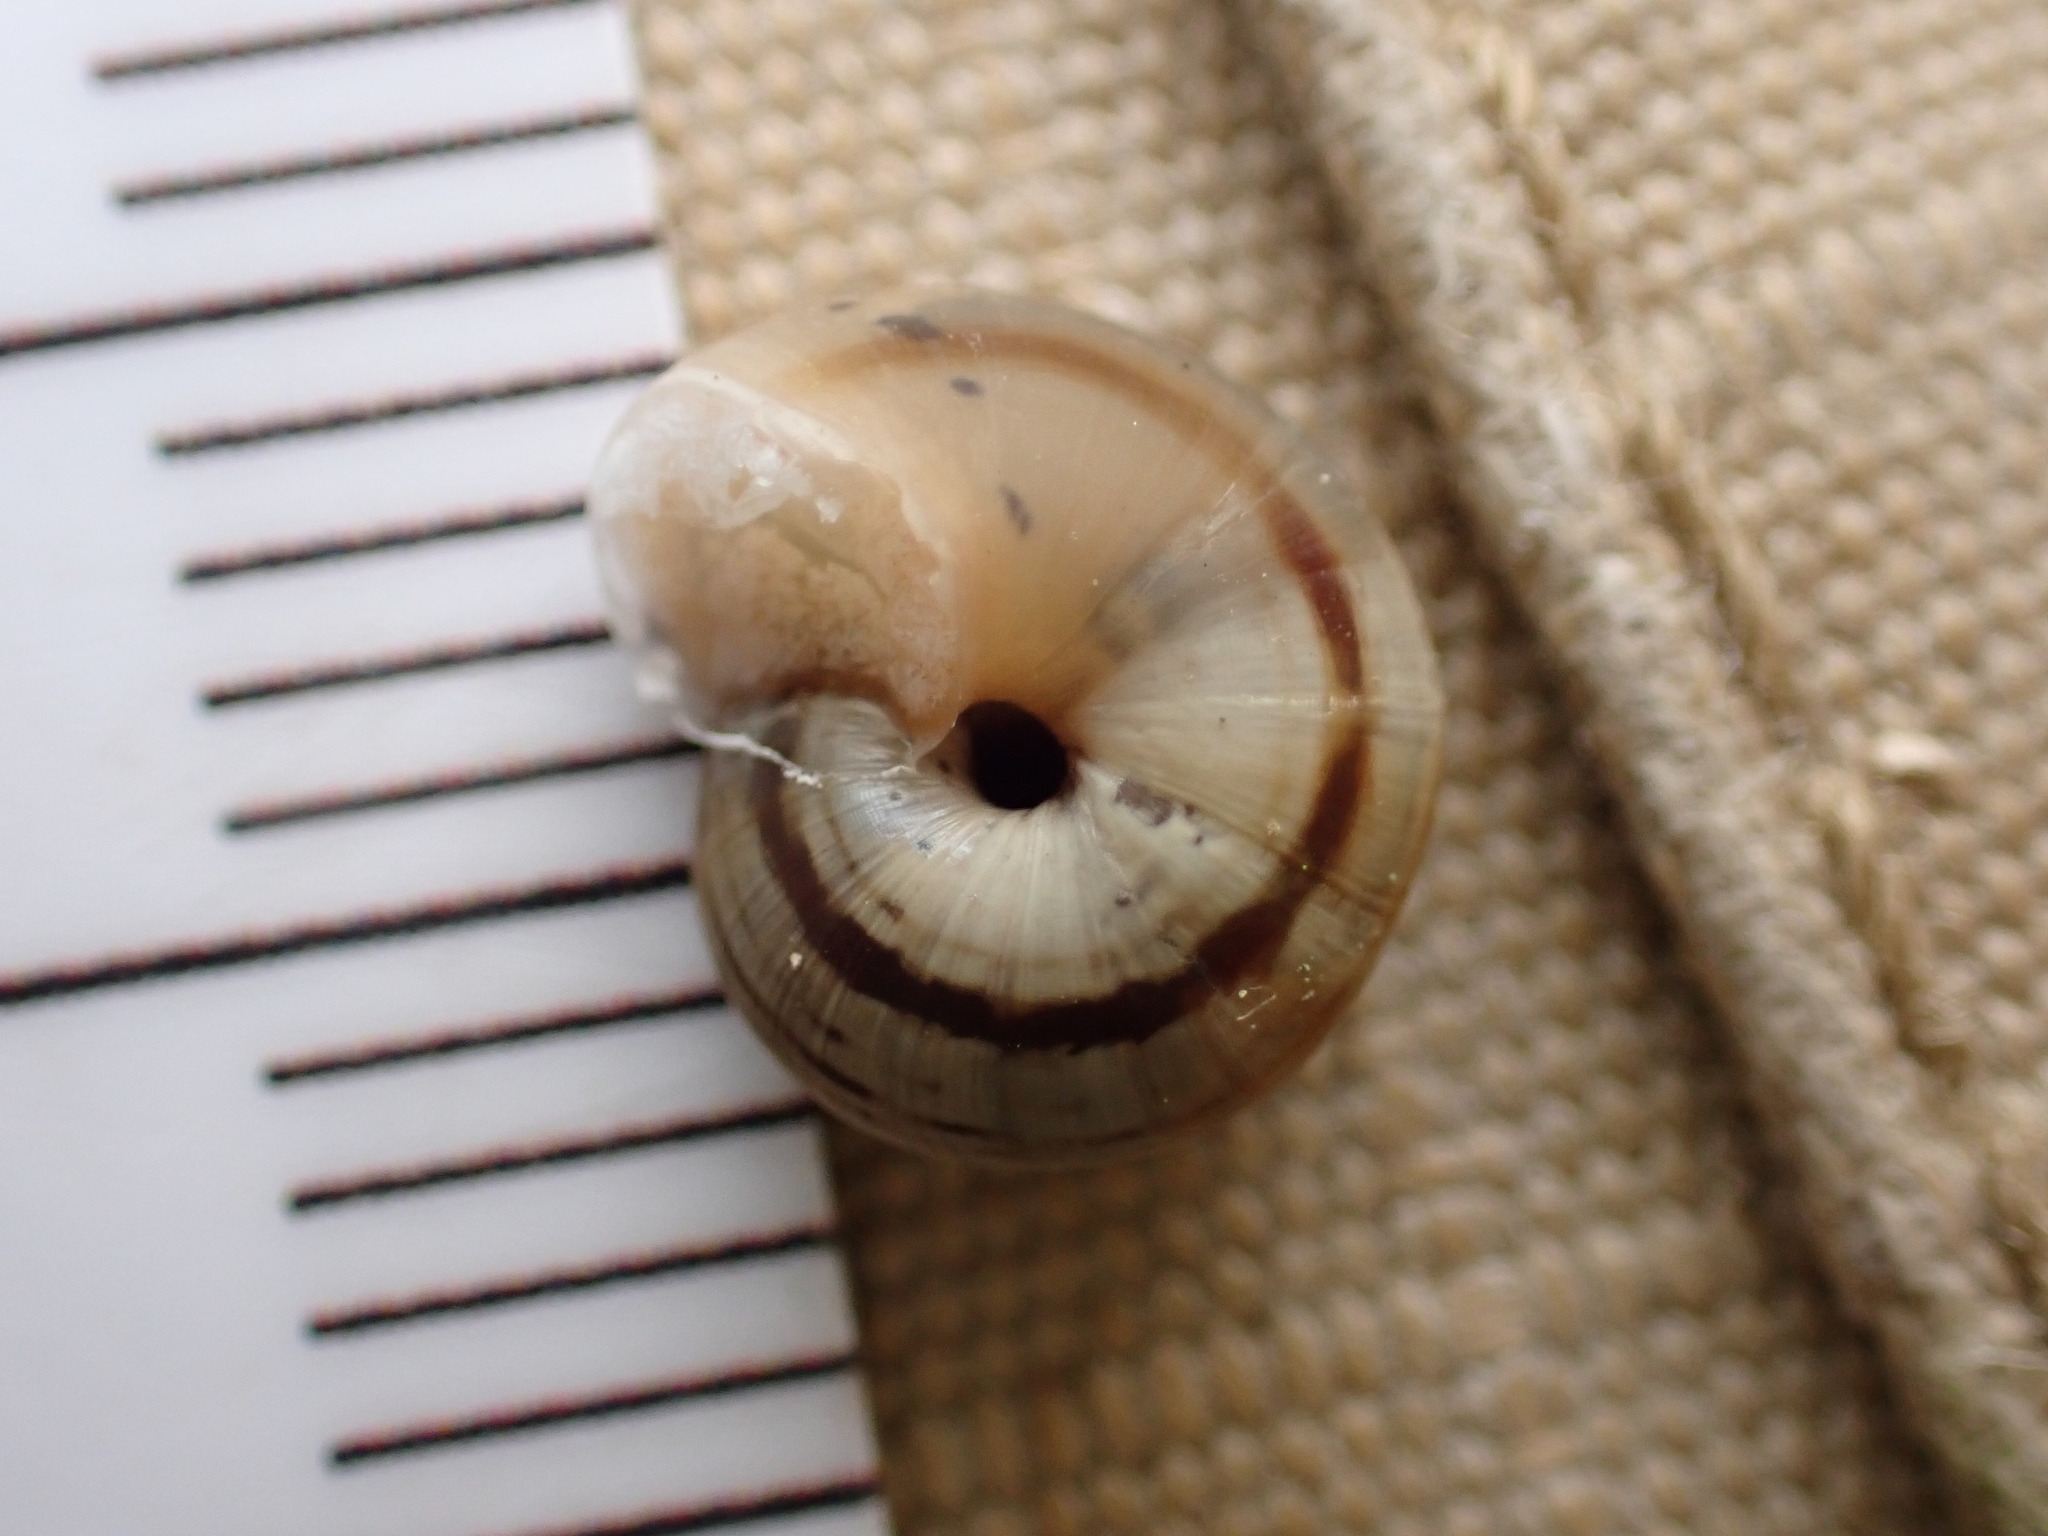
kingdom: Animalia
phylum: Mollusca
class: Gastropoda
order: Stylommatophora
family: Helicidae
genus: Theba
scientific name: Theba pisana
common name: White snail
